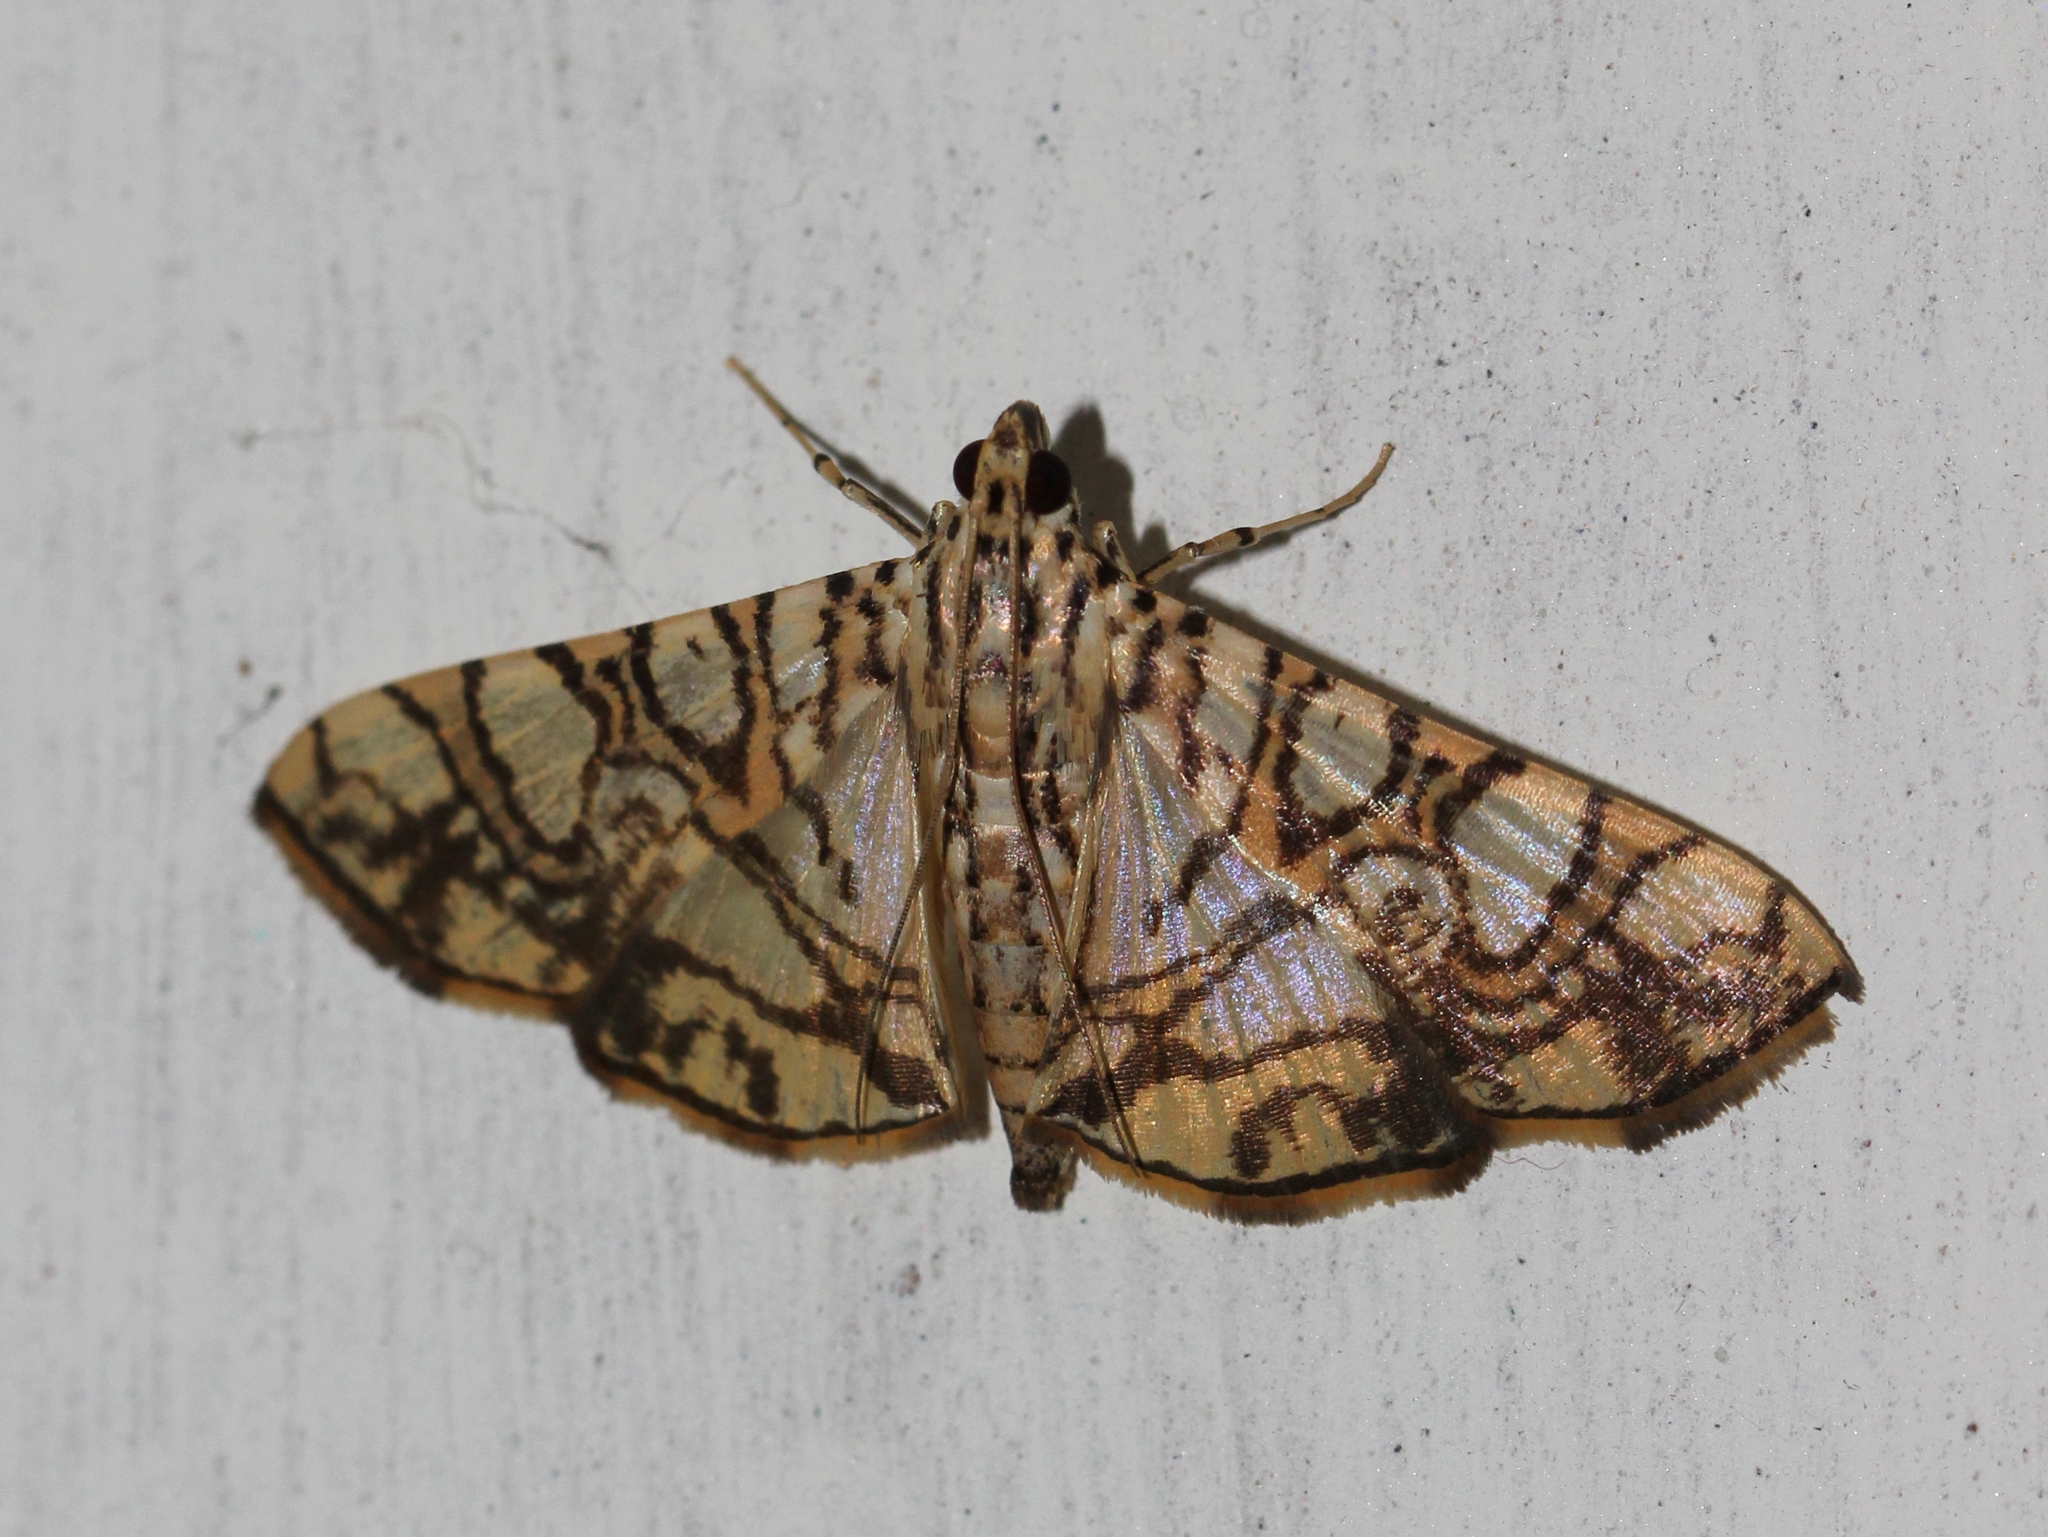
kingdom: Animalia
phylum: Arthropoda
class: Insecta
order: Lepidoptera
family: Crambidae
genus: Glyphodes
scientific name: Glyphodes caesalis
